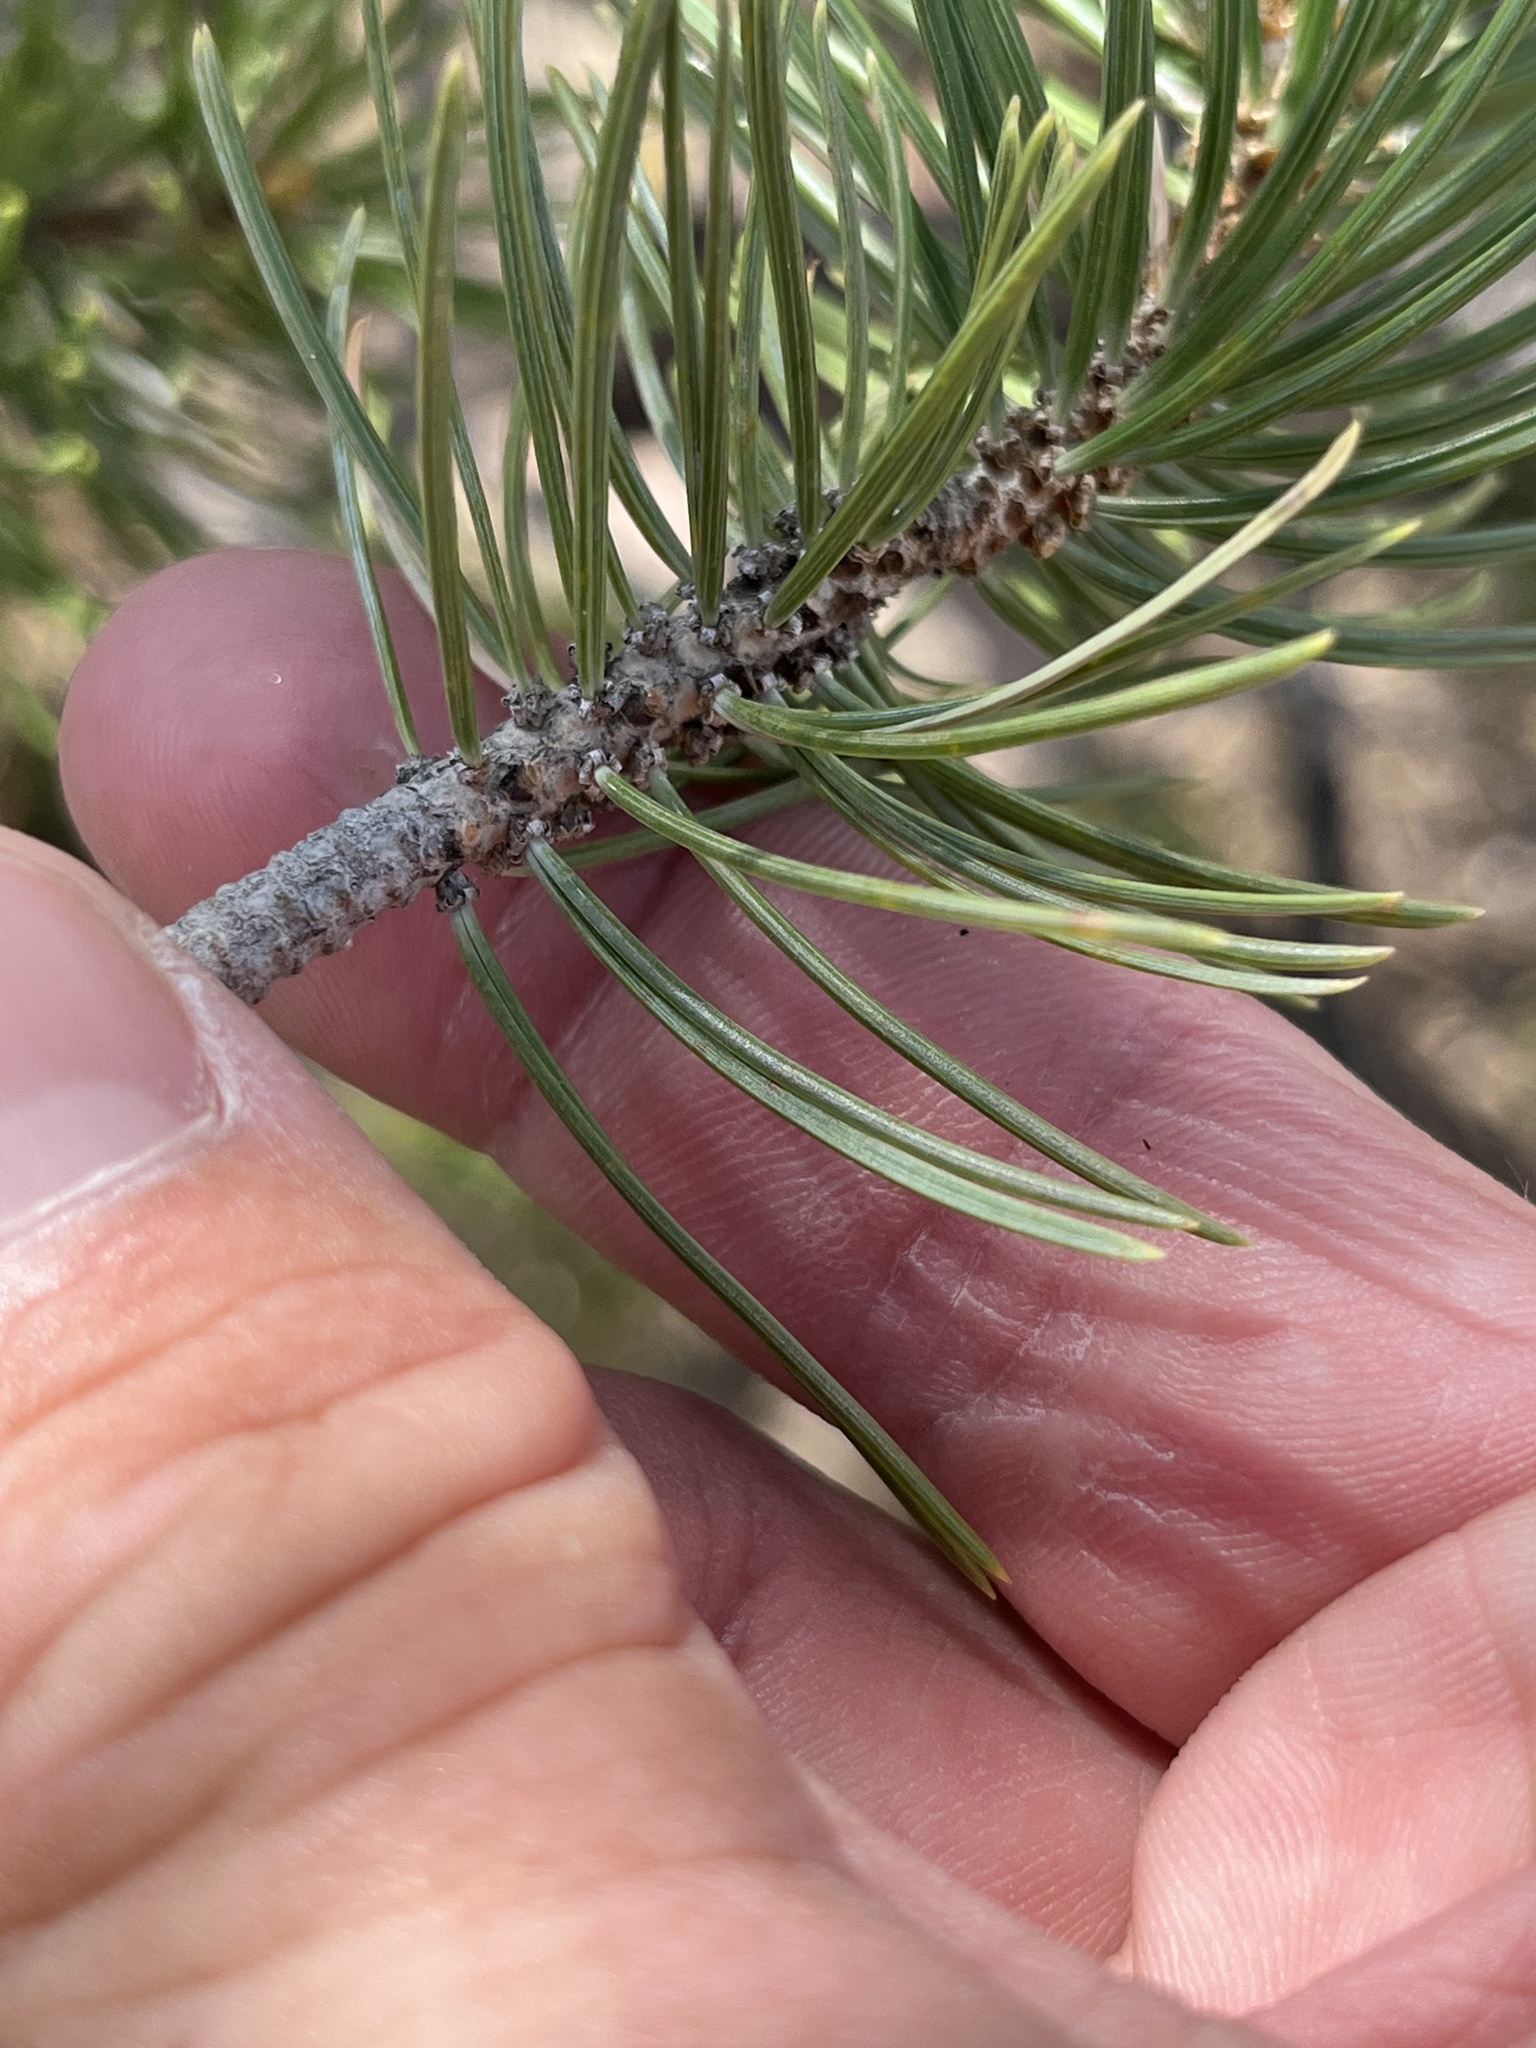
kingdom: Plantae
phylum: Tracheophyta
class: Pinopsida
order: Pinales
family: Pinaceae
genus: Pinus
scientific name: Pinus cembroides
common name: Mexican nut pine
